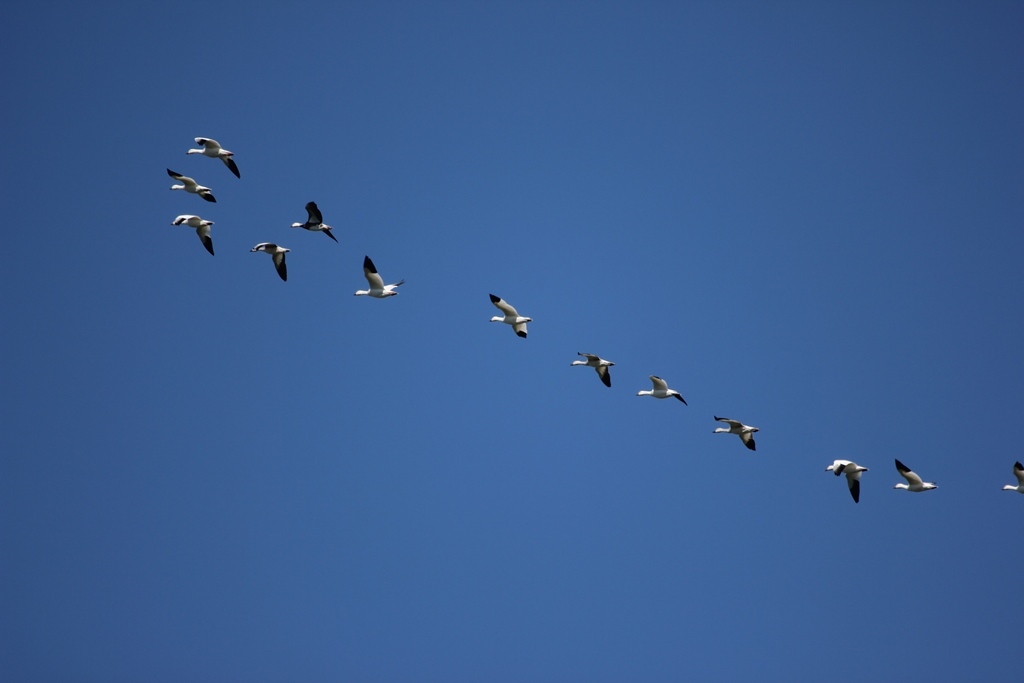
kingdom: Animalia
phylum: Chordata
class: Aves
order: Anseriformes
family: Anatidae
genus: Anser
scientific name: Anser caerulescens
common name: Snow goose
